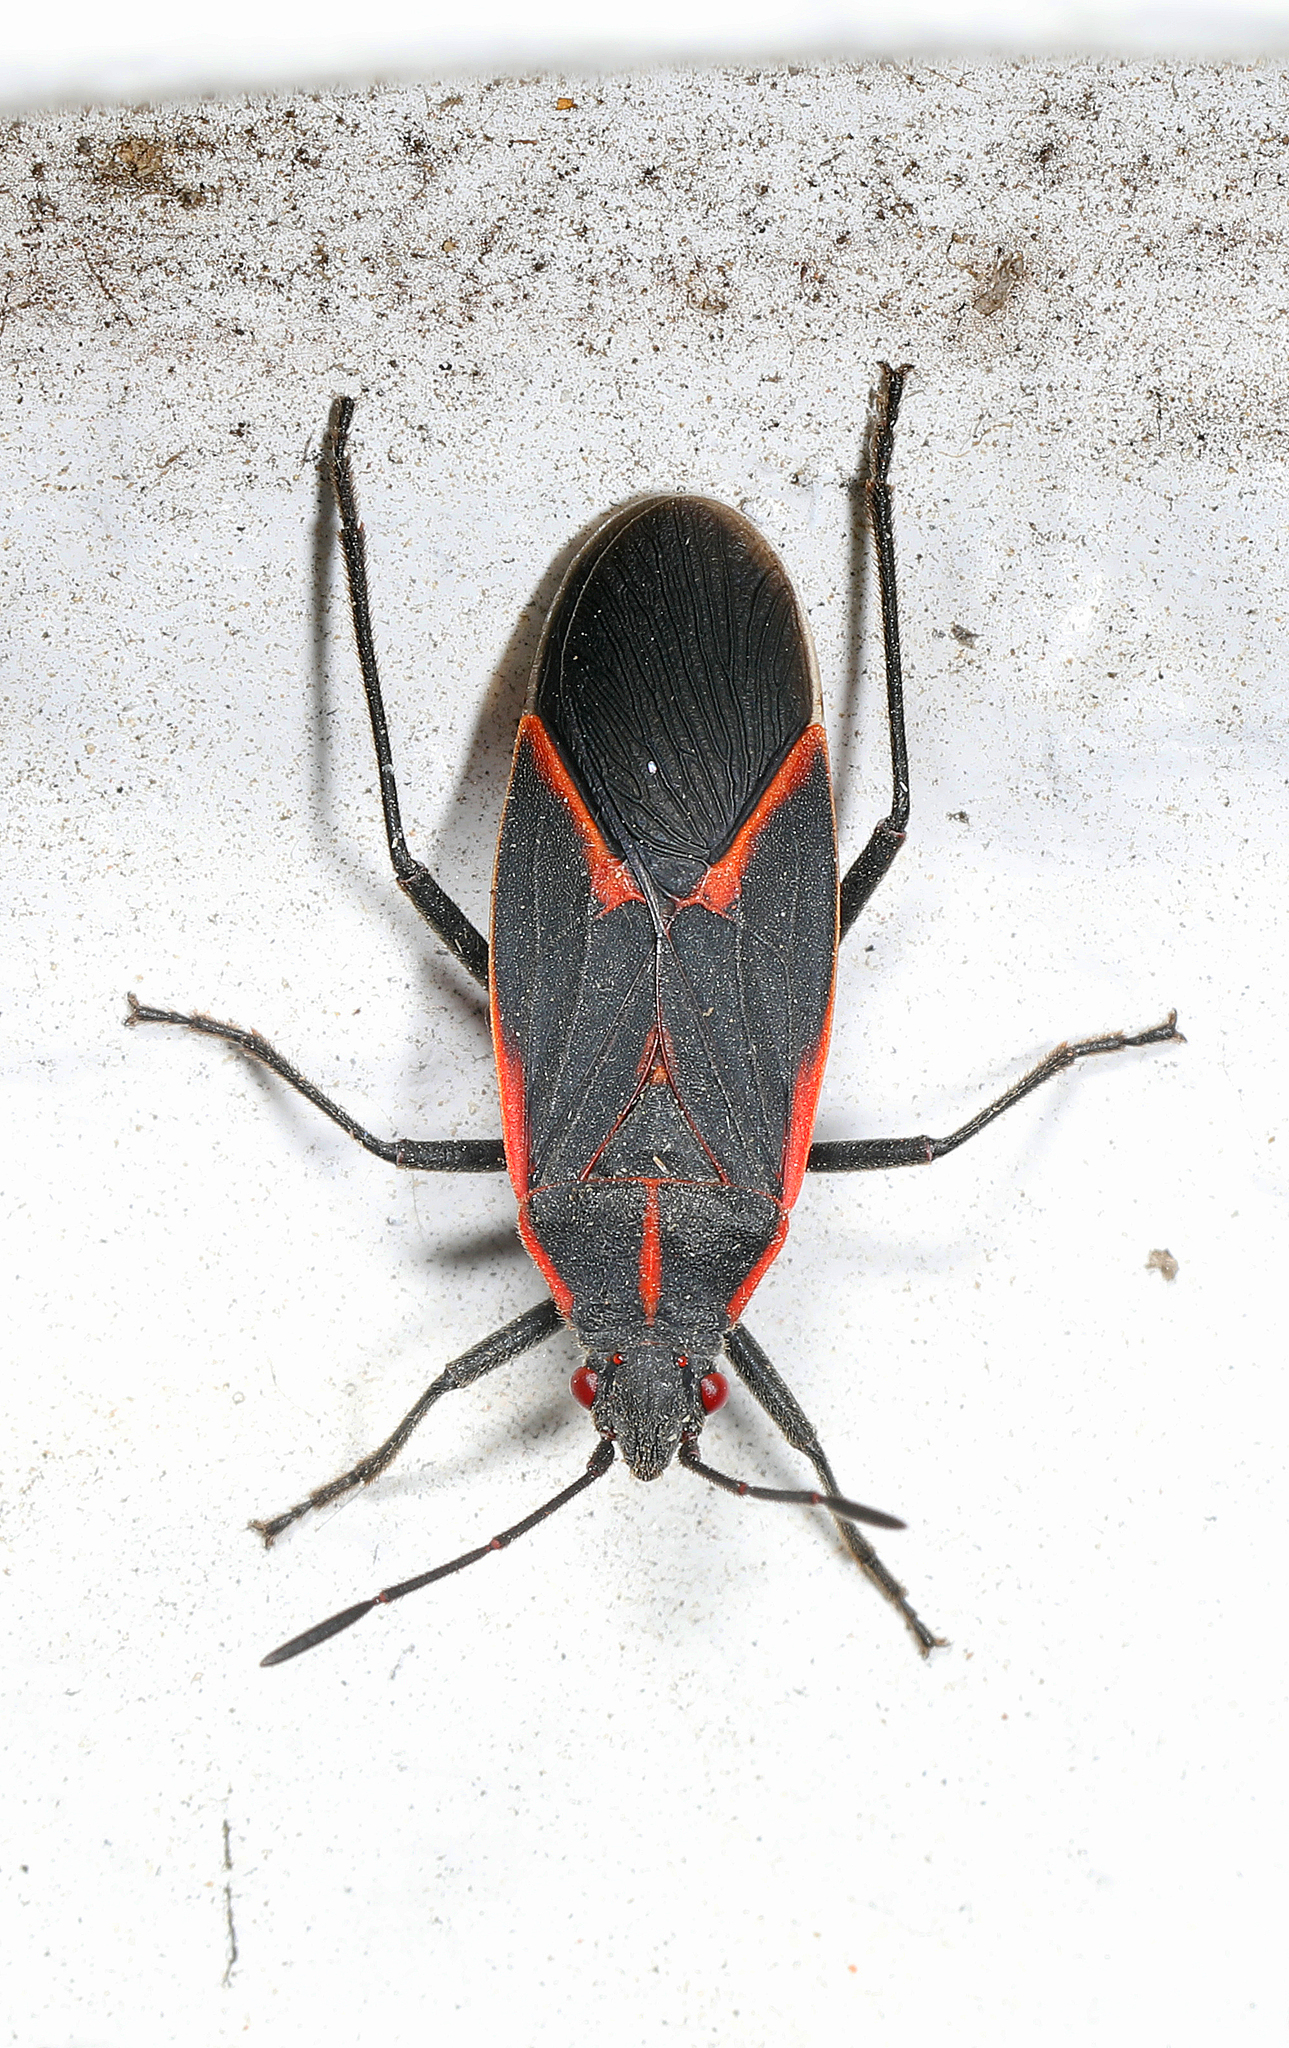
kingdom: Animalia
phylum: Arthropoda
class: Insecta
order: Hemiptera
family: Rhopalidae
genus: Boisea
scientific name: Boisea trivittata
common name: Boxelder bug
